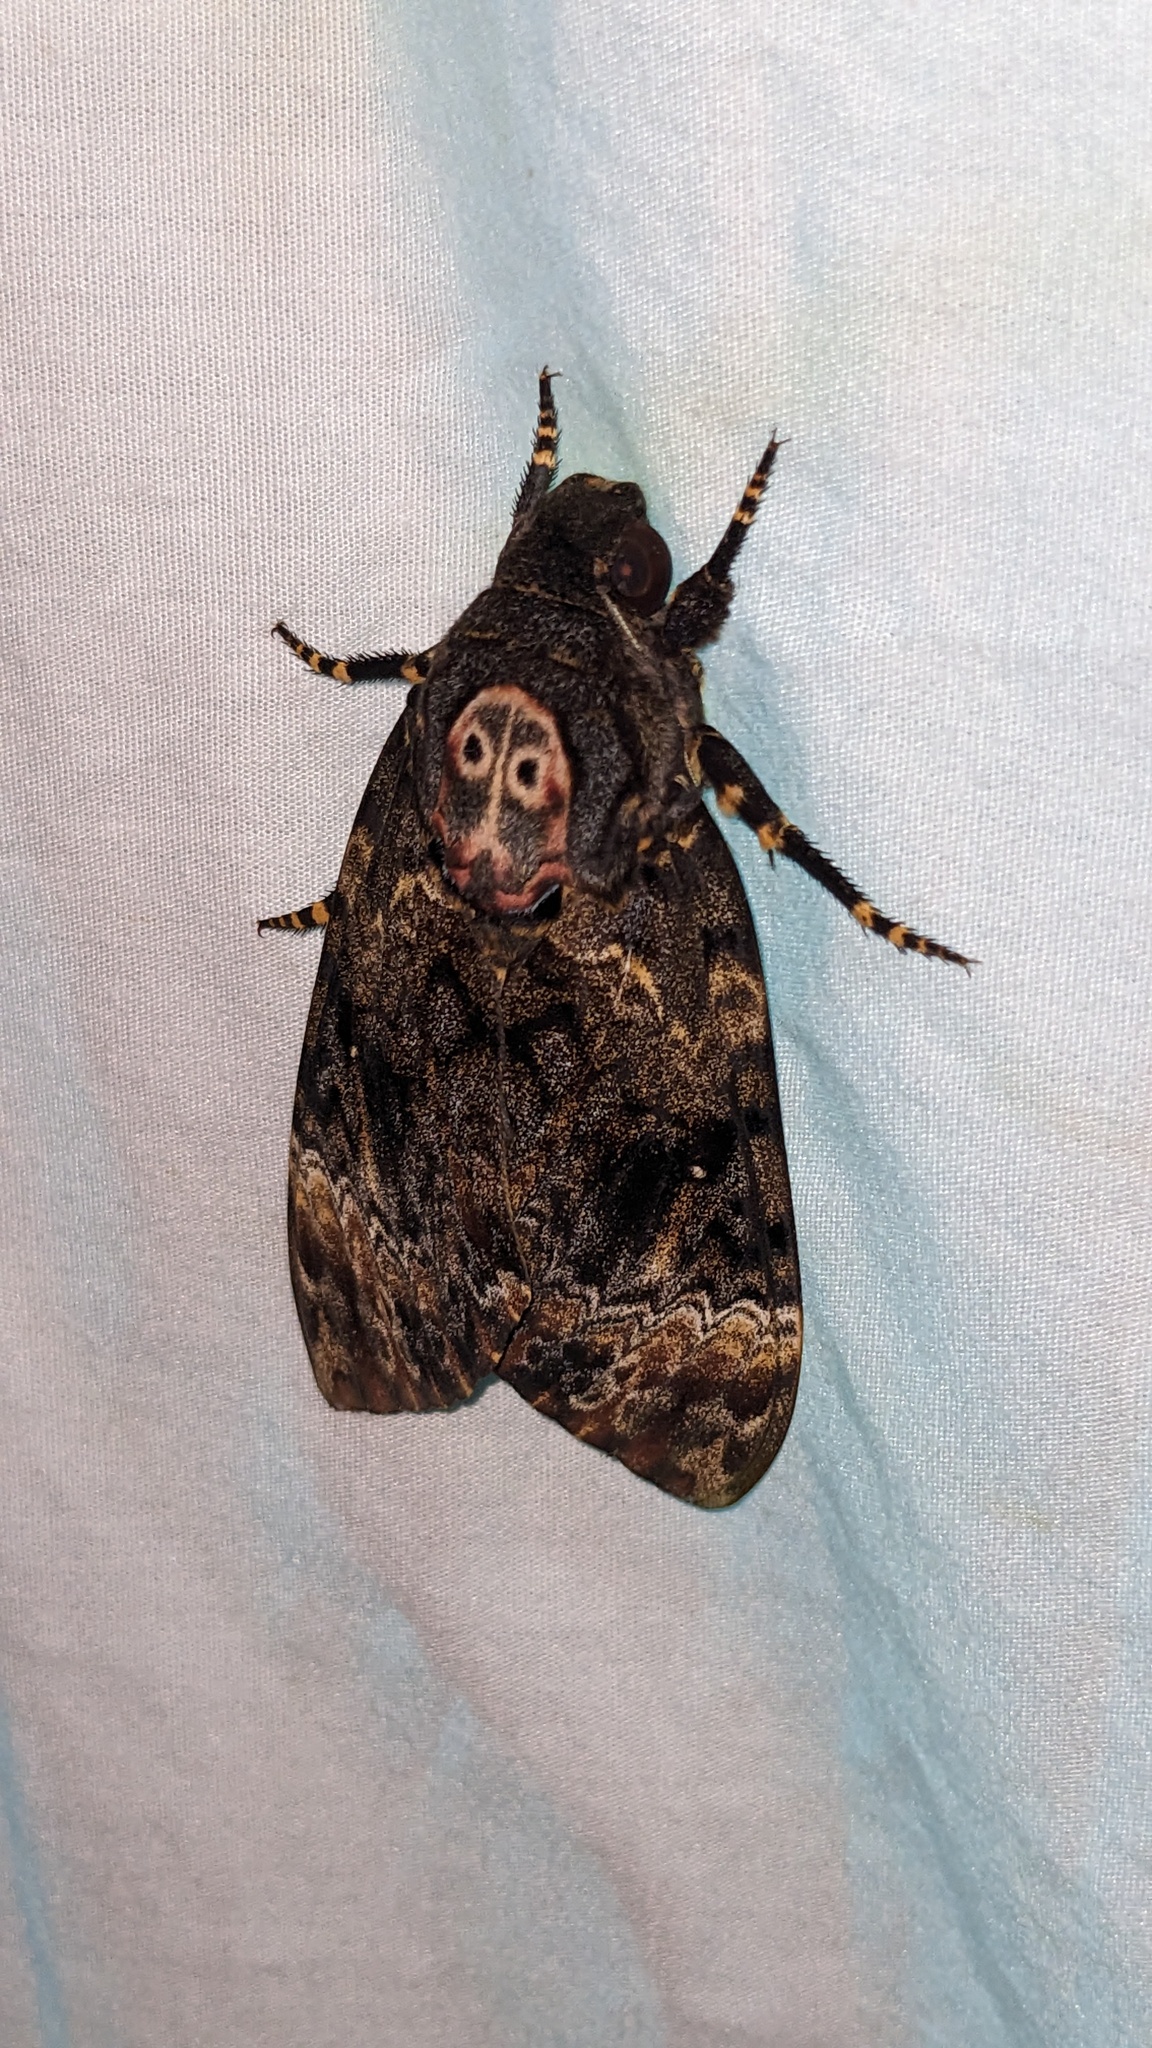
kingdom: Animalia
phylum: Arthropoda
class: Insecta
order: Lepidoptera
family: Sphingidae
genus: Acherontia
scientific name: Acherontia lachesis
